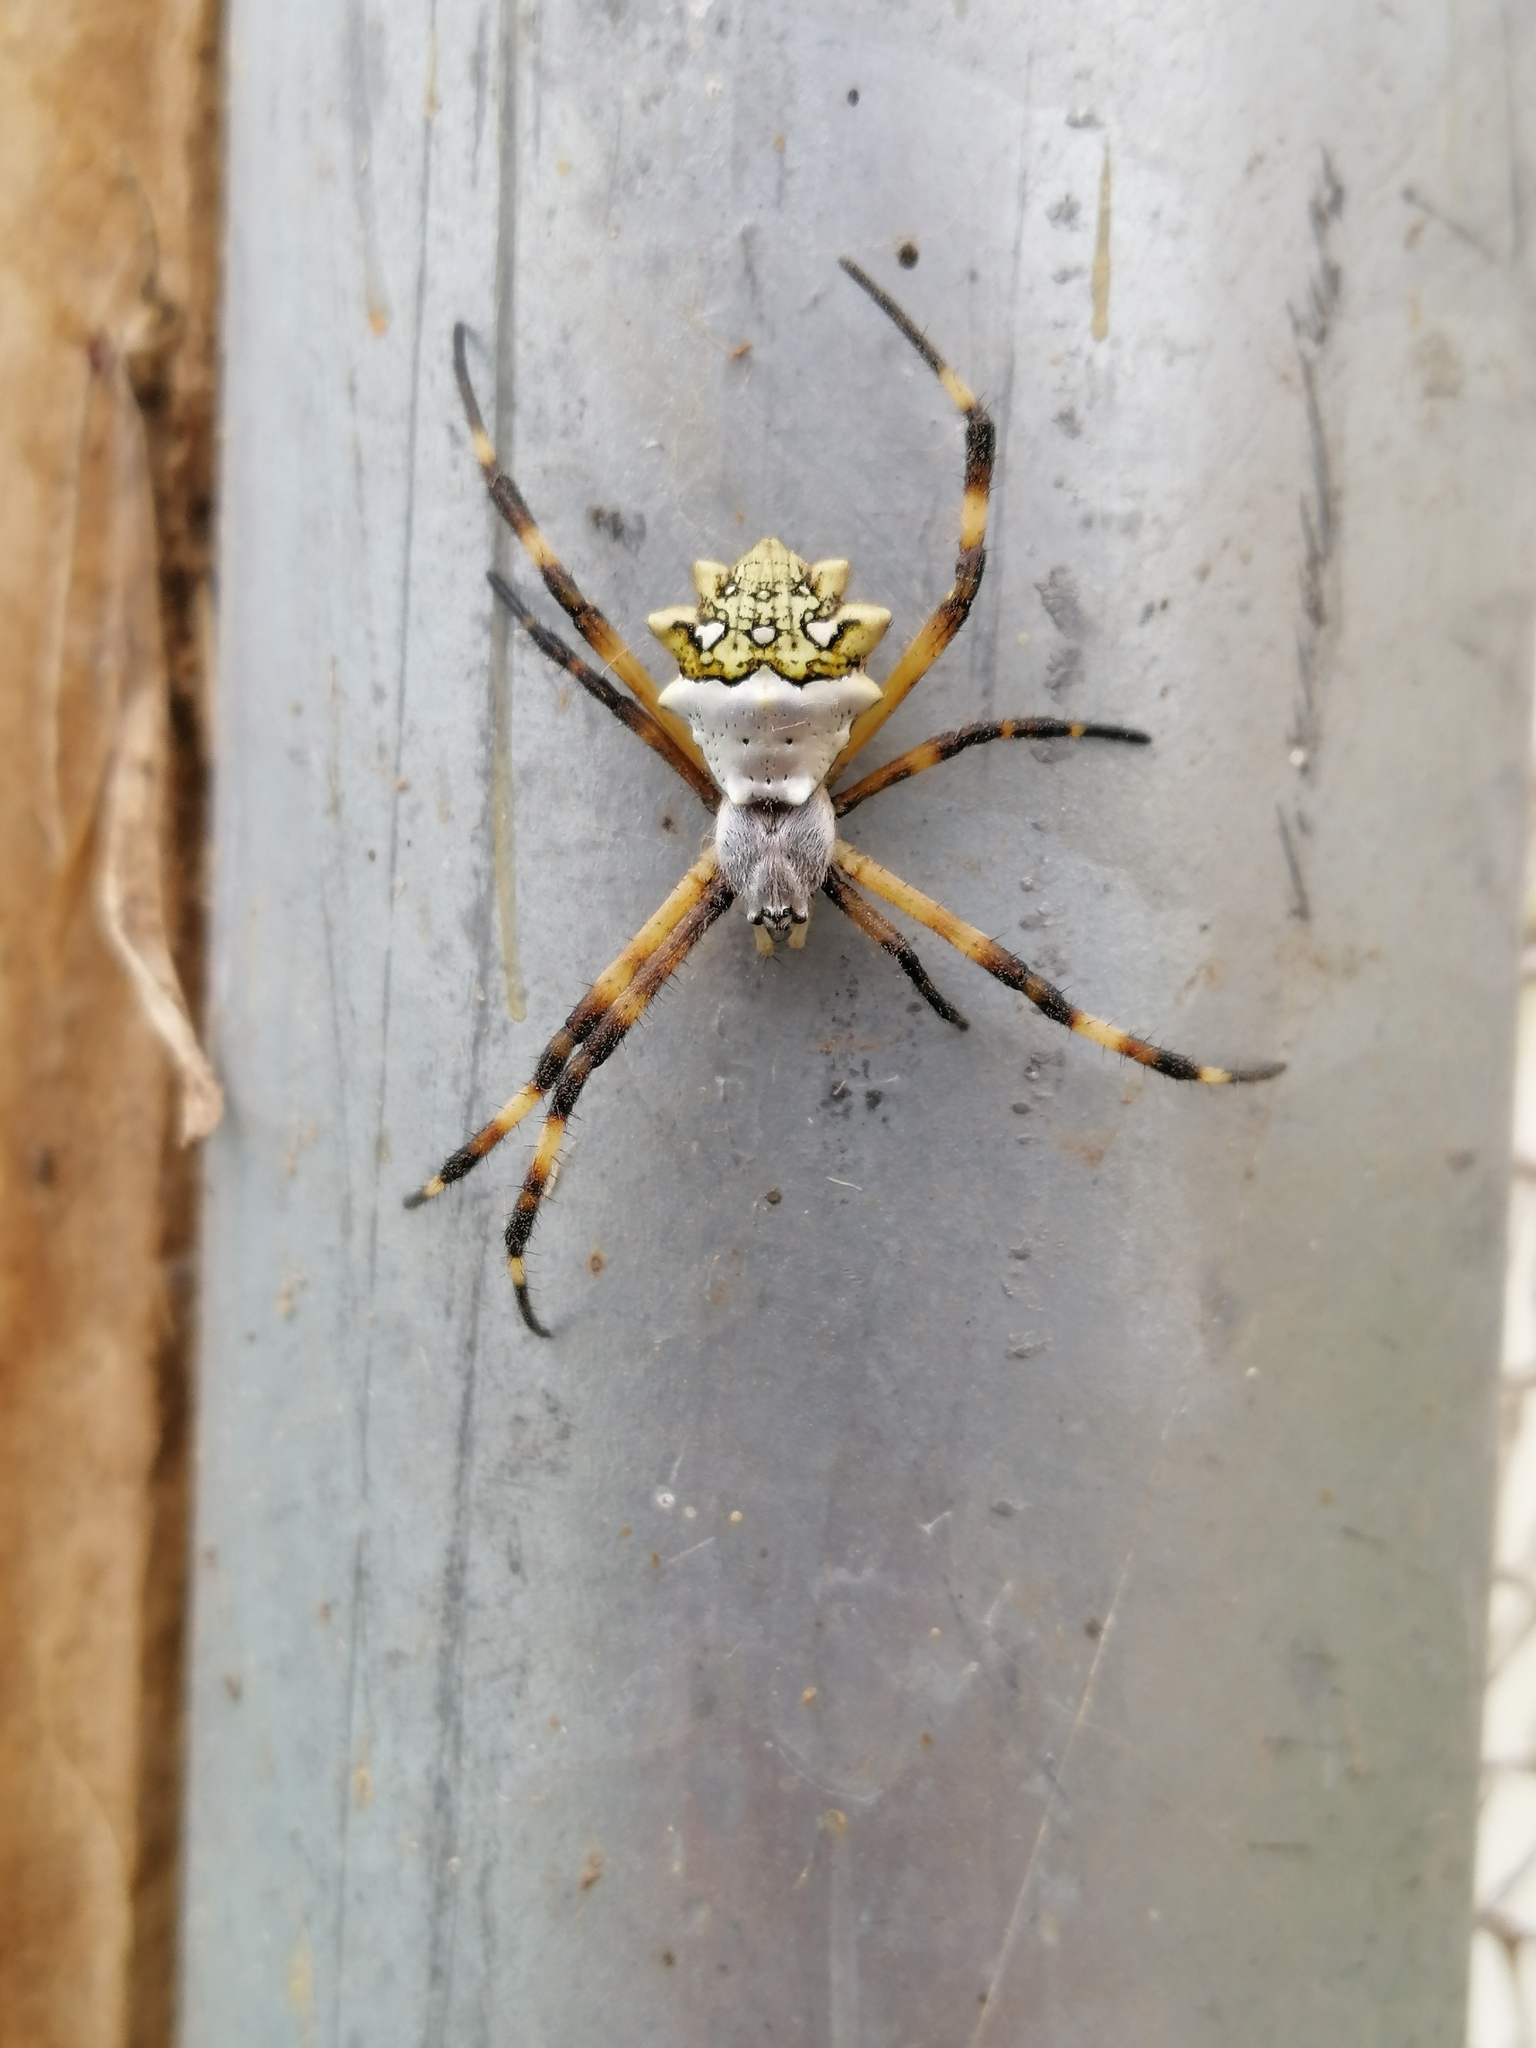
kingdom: Animalia
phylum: Arthropoda
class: Arachnida
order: Araneae
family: Araneidae
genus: Argiope
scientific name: Argiope argentata
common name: Orb weavers
